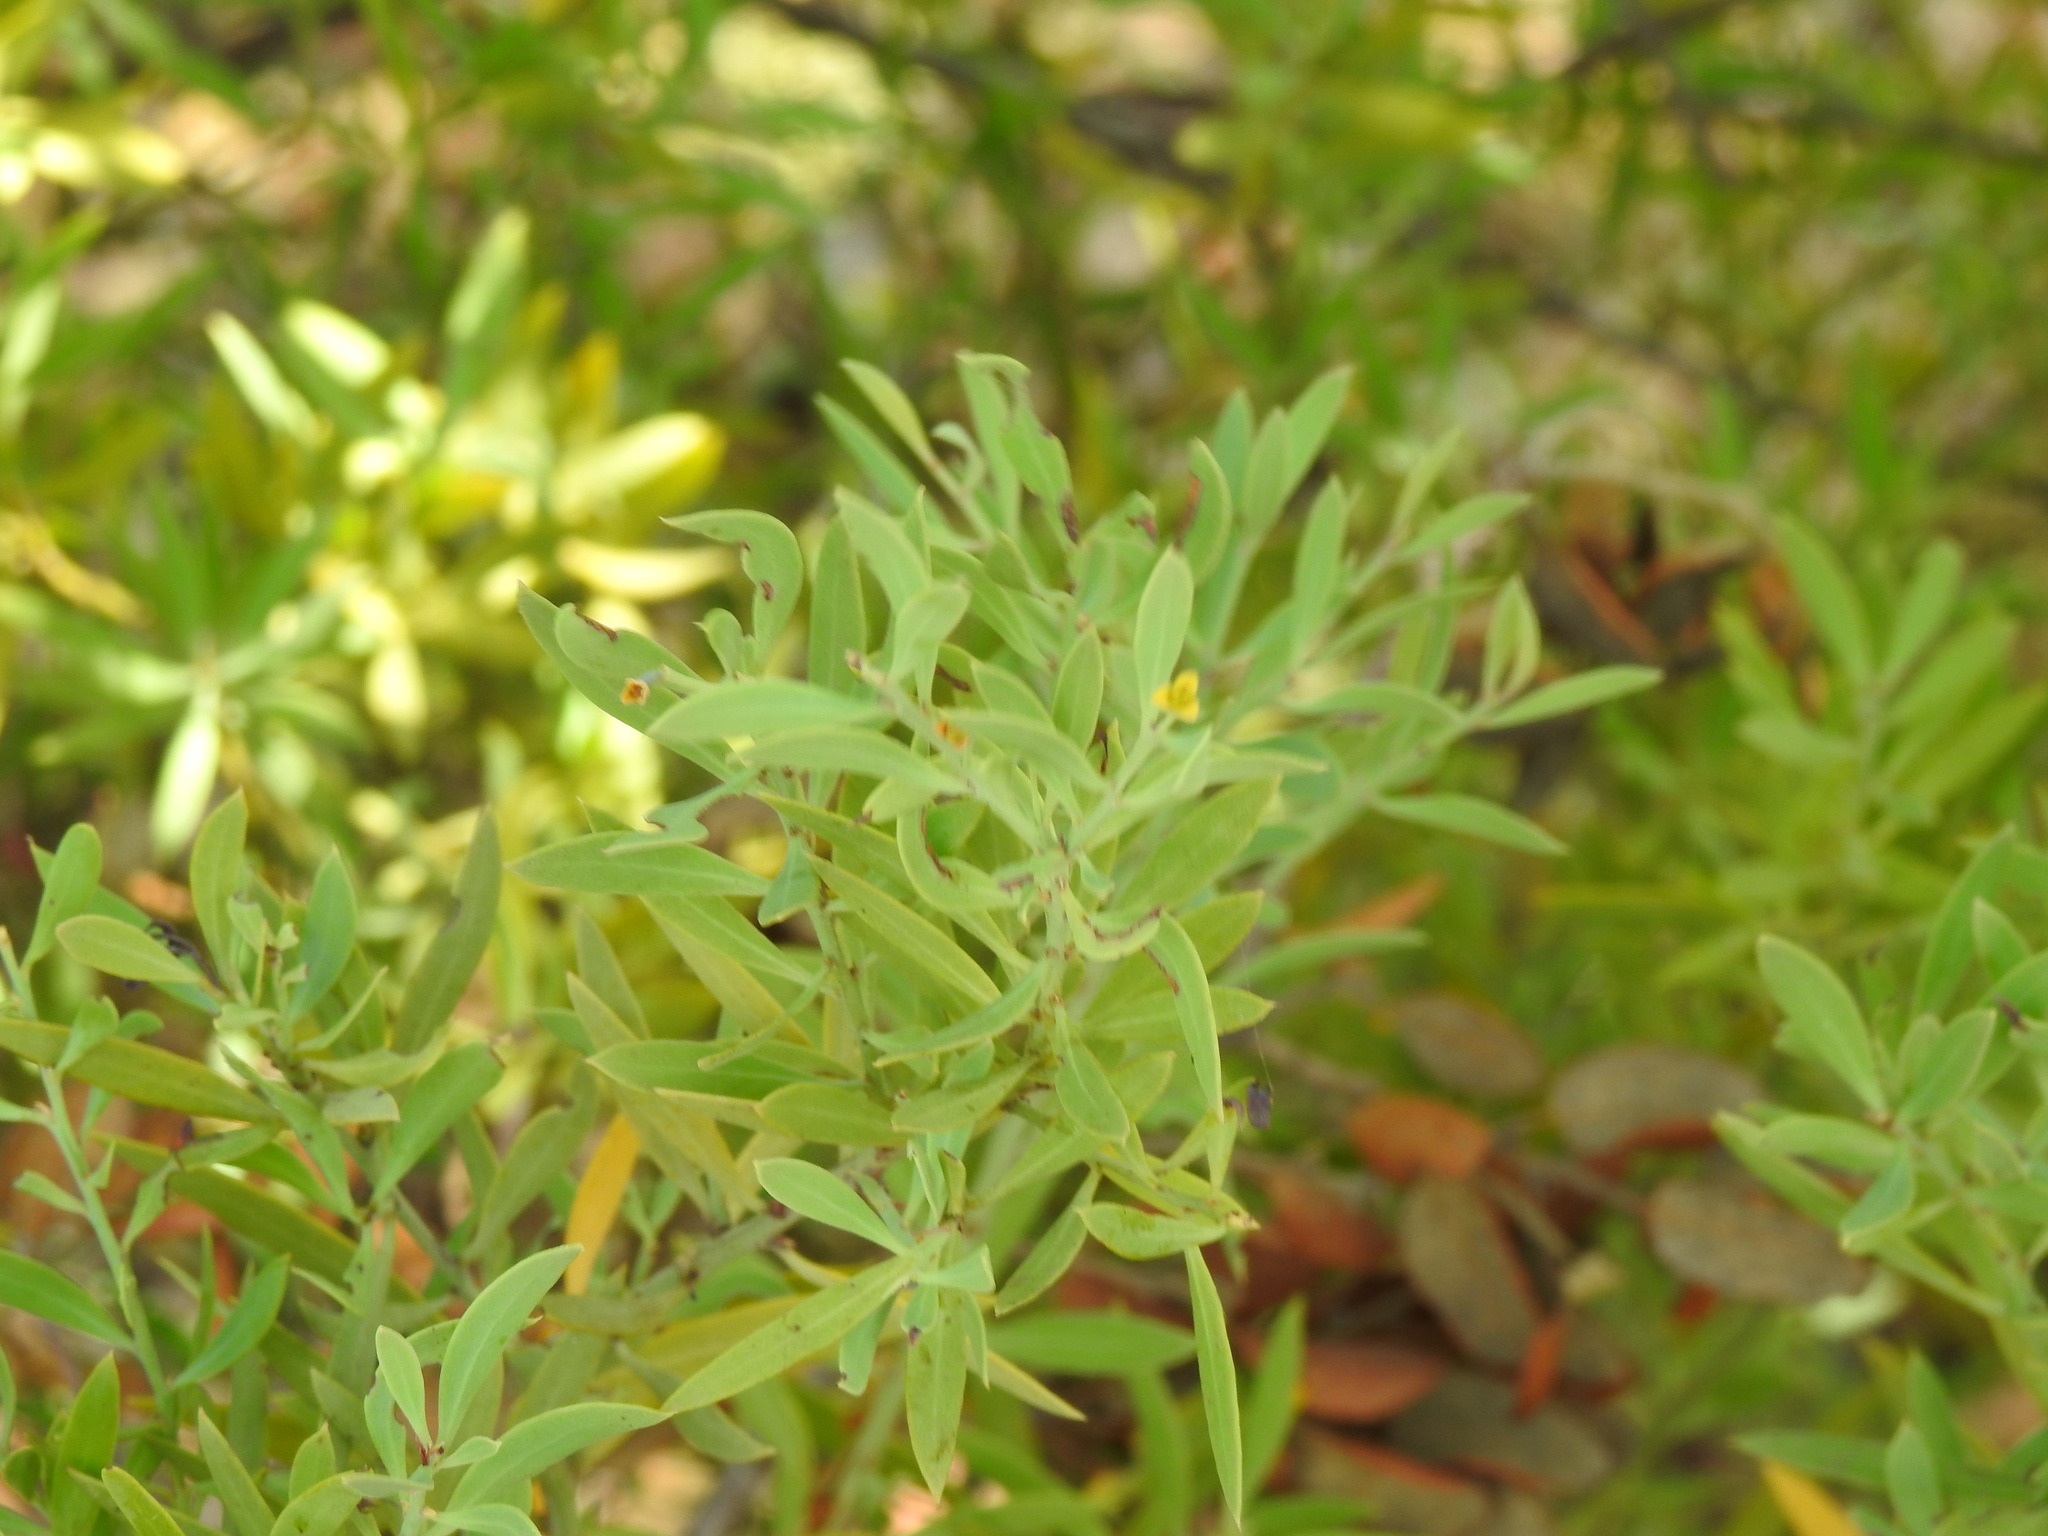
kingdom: Plantae
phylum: Tracheophyta
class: Magnoliopsida
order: Santalales
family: Santalaceae
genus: Osyris
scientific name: Osyris lanceolata
